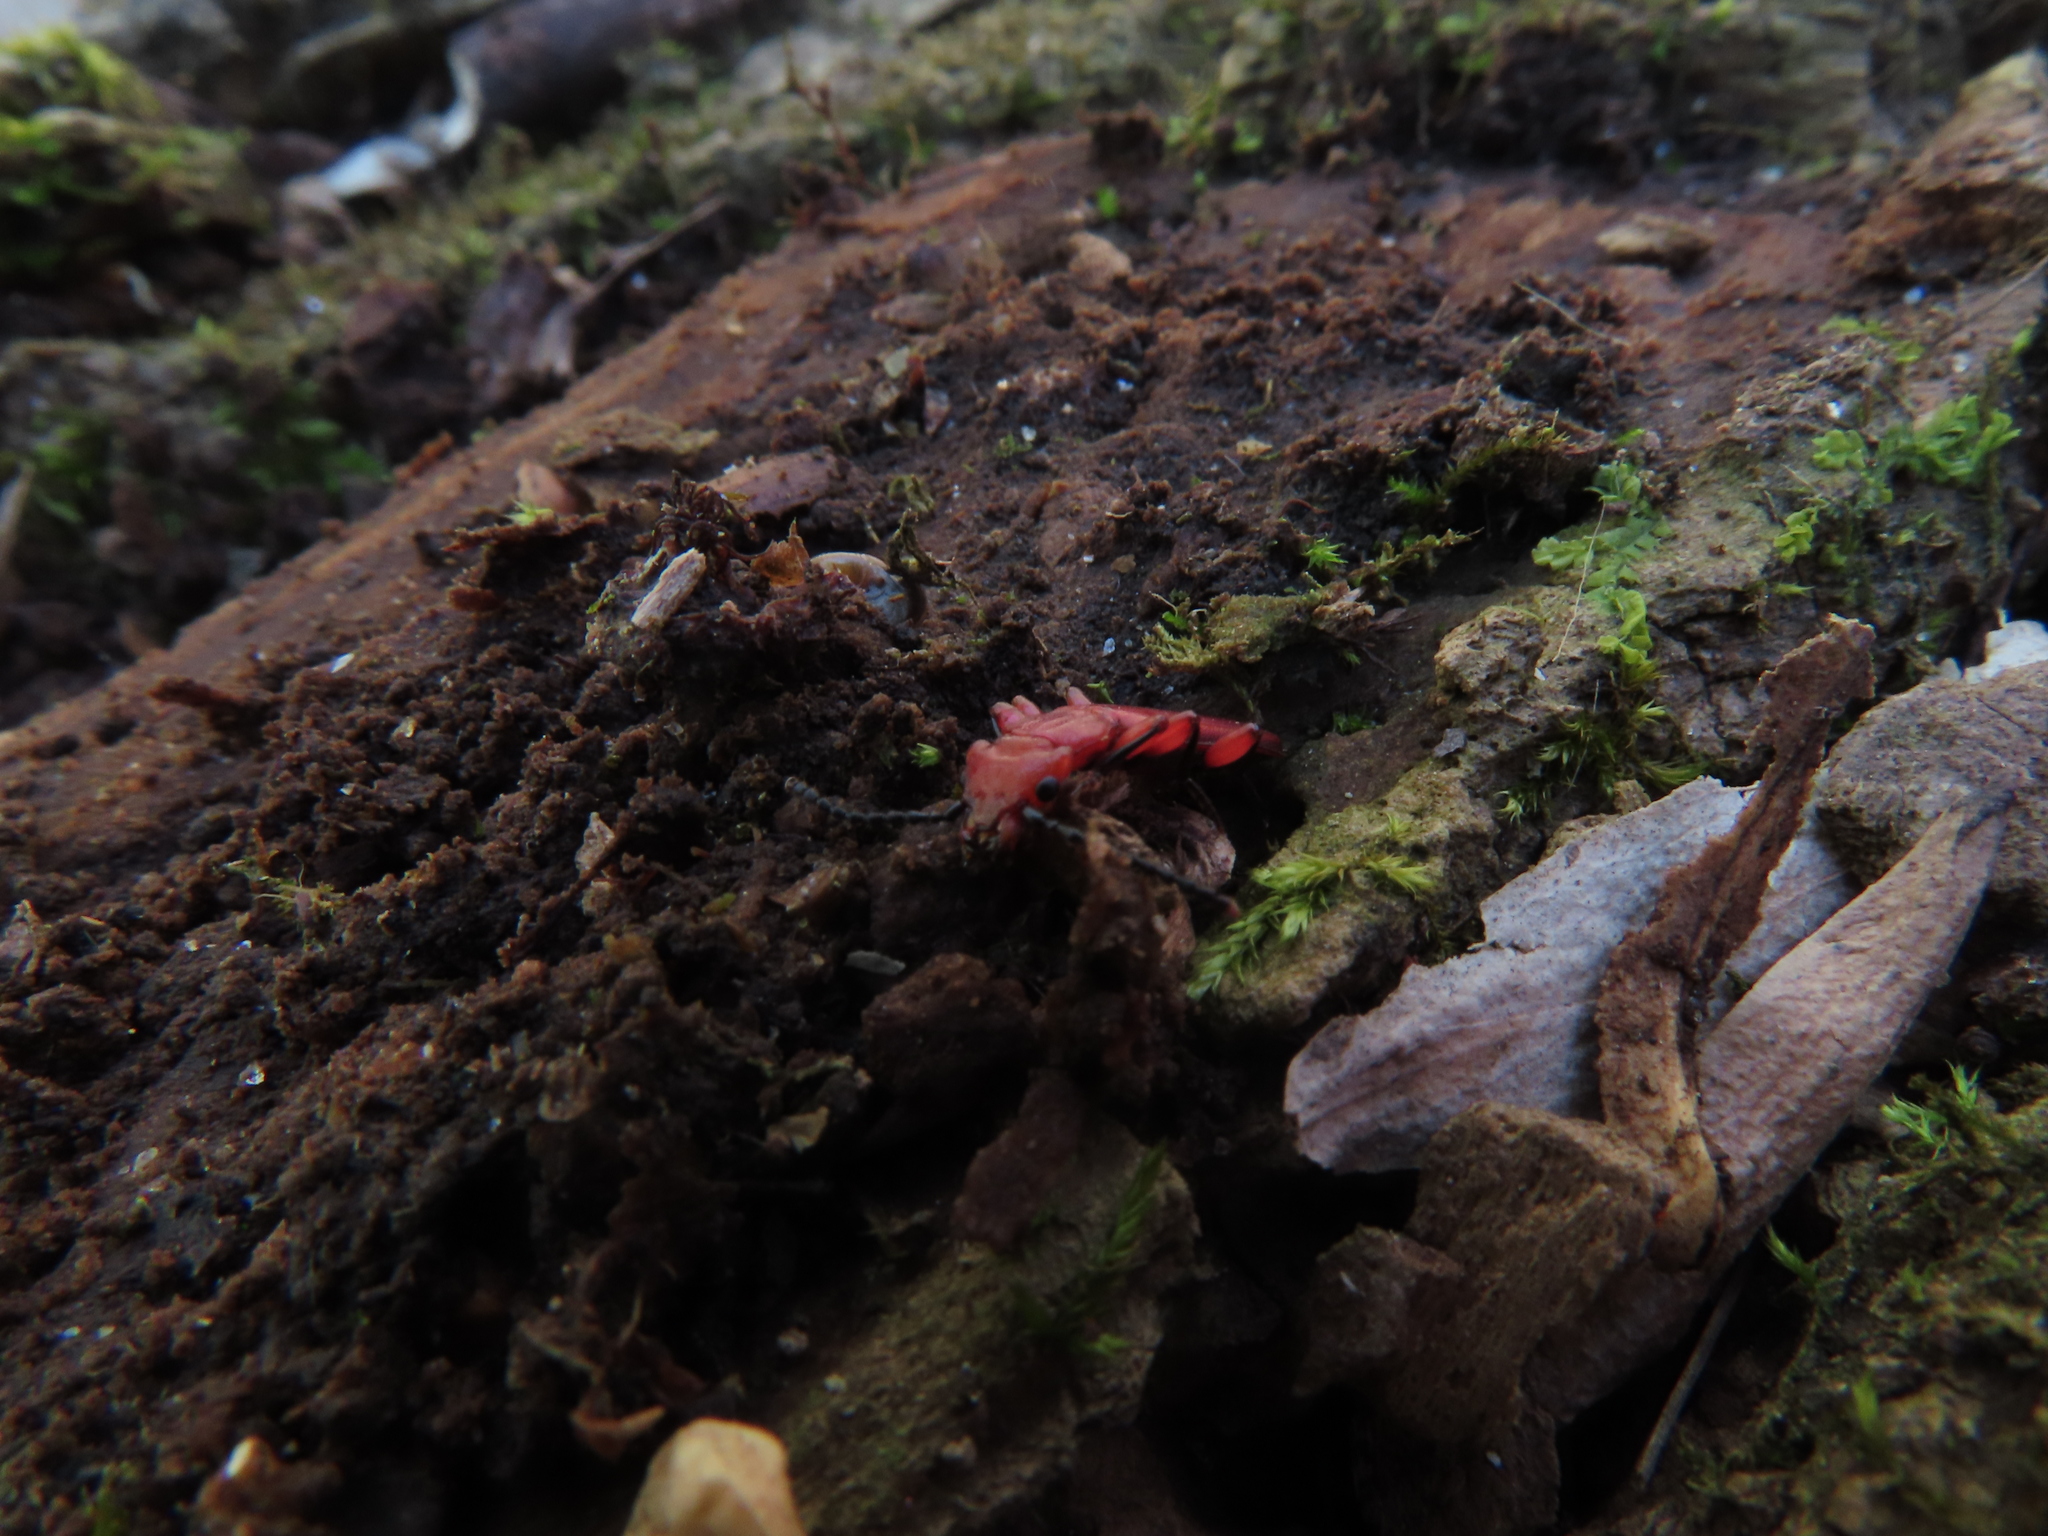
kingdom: Animalia
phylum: Arthropoda
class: Insecta
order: Coleoptera
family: Cucujidae
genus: Cucujus
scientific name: Cucujus clavipes
